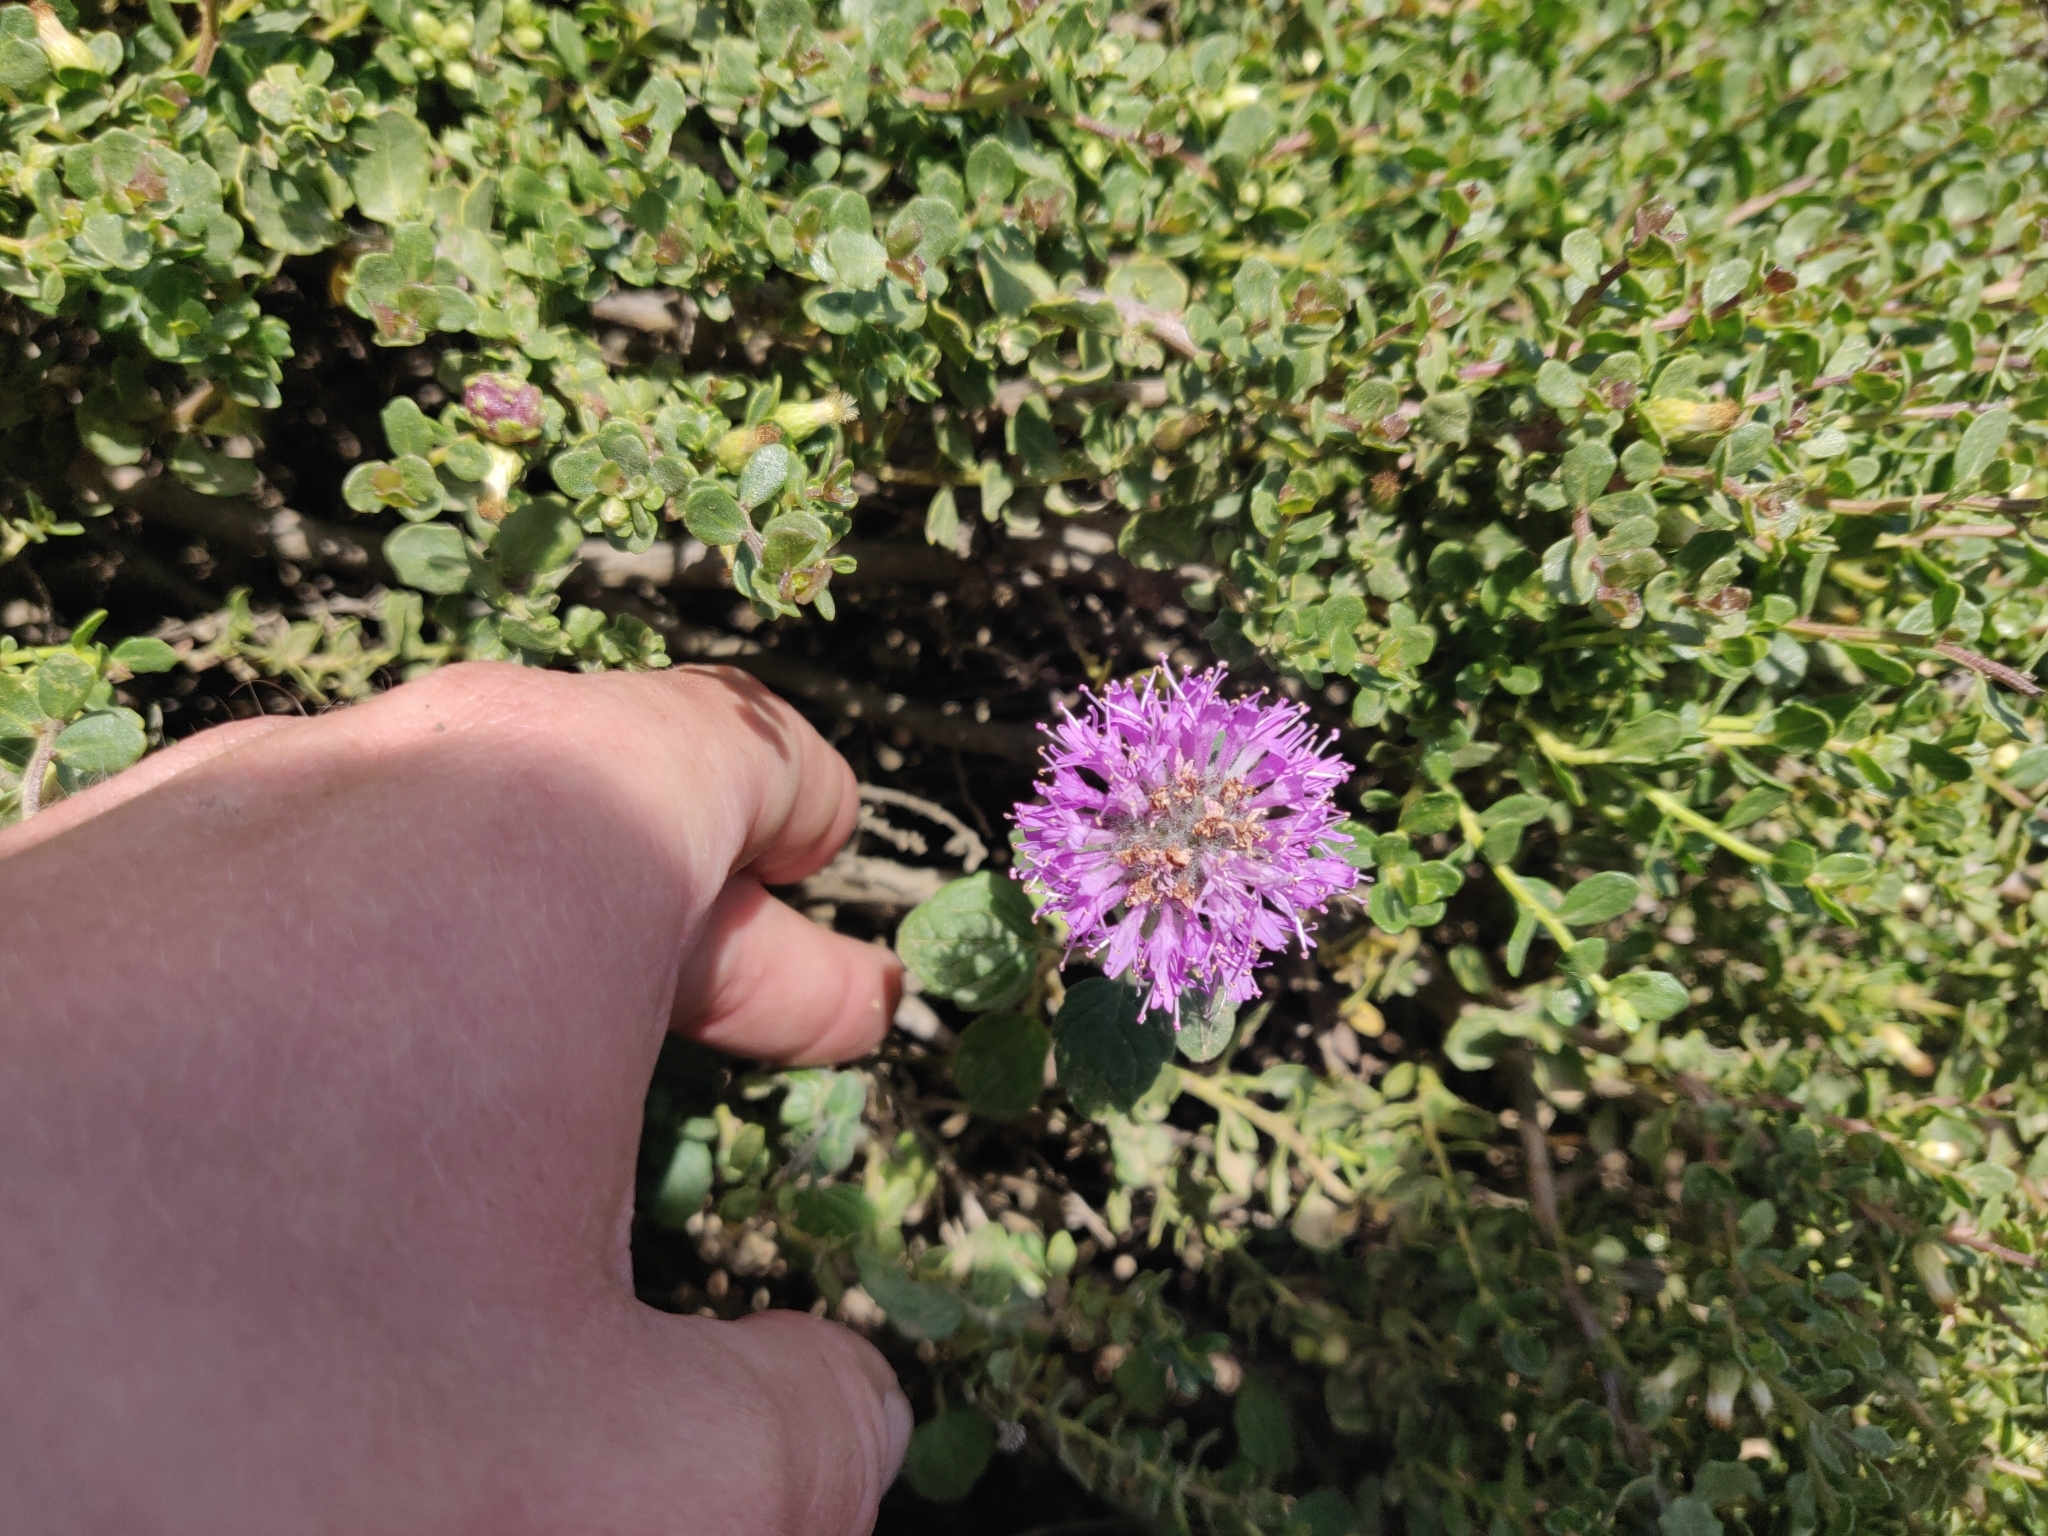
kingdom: Plantae
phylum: Tracheophyta
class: Magnoliopsida
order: Lamiales
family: Lamiaceae
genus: Monardella
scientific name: Monardella odoratissima
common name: Pacific monardella
